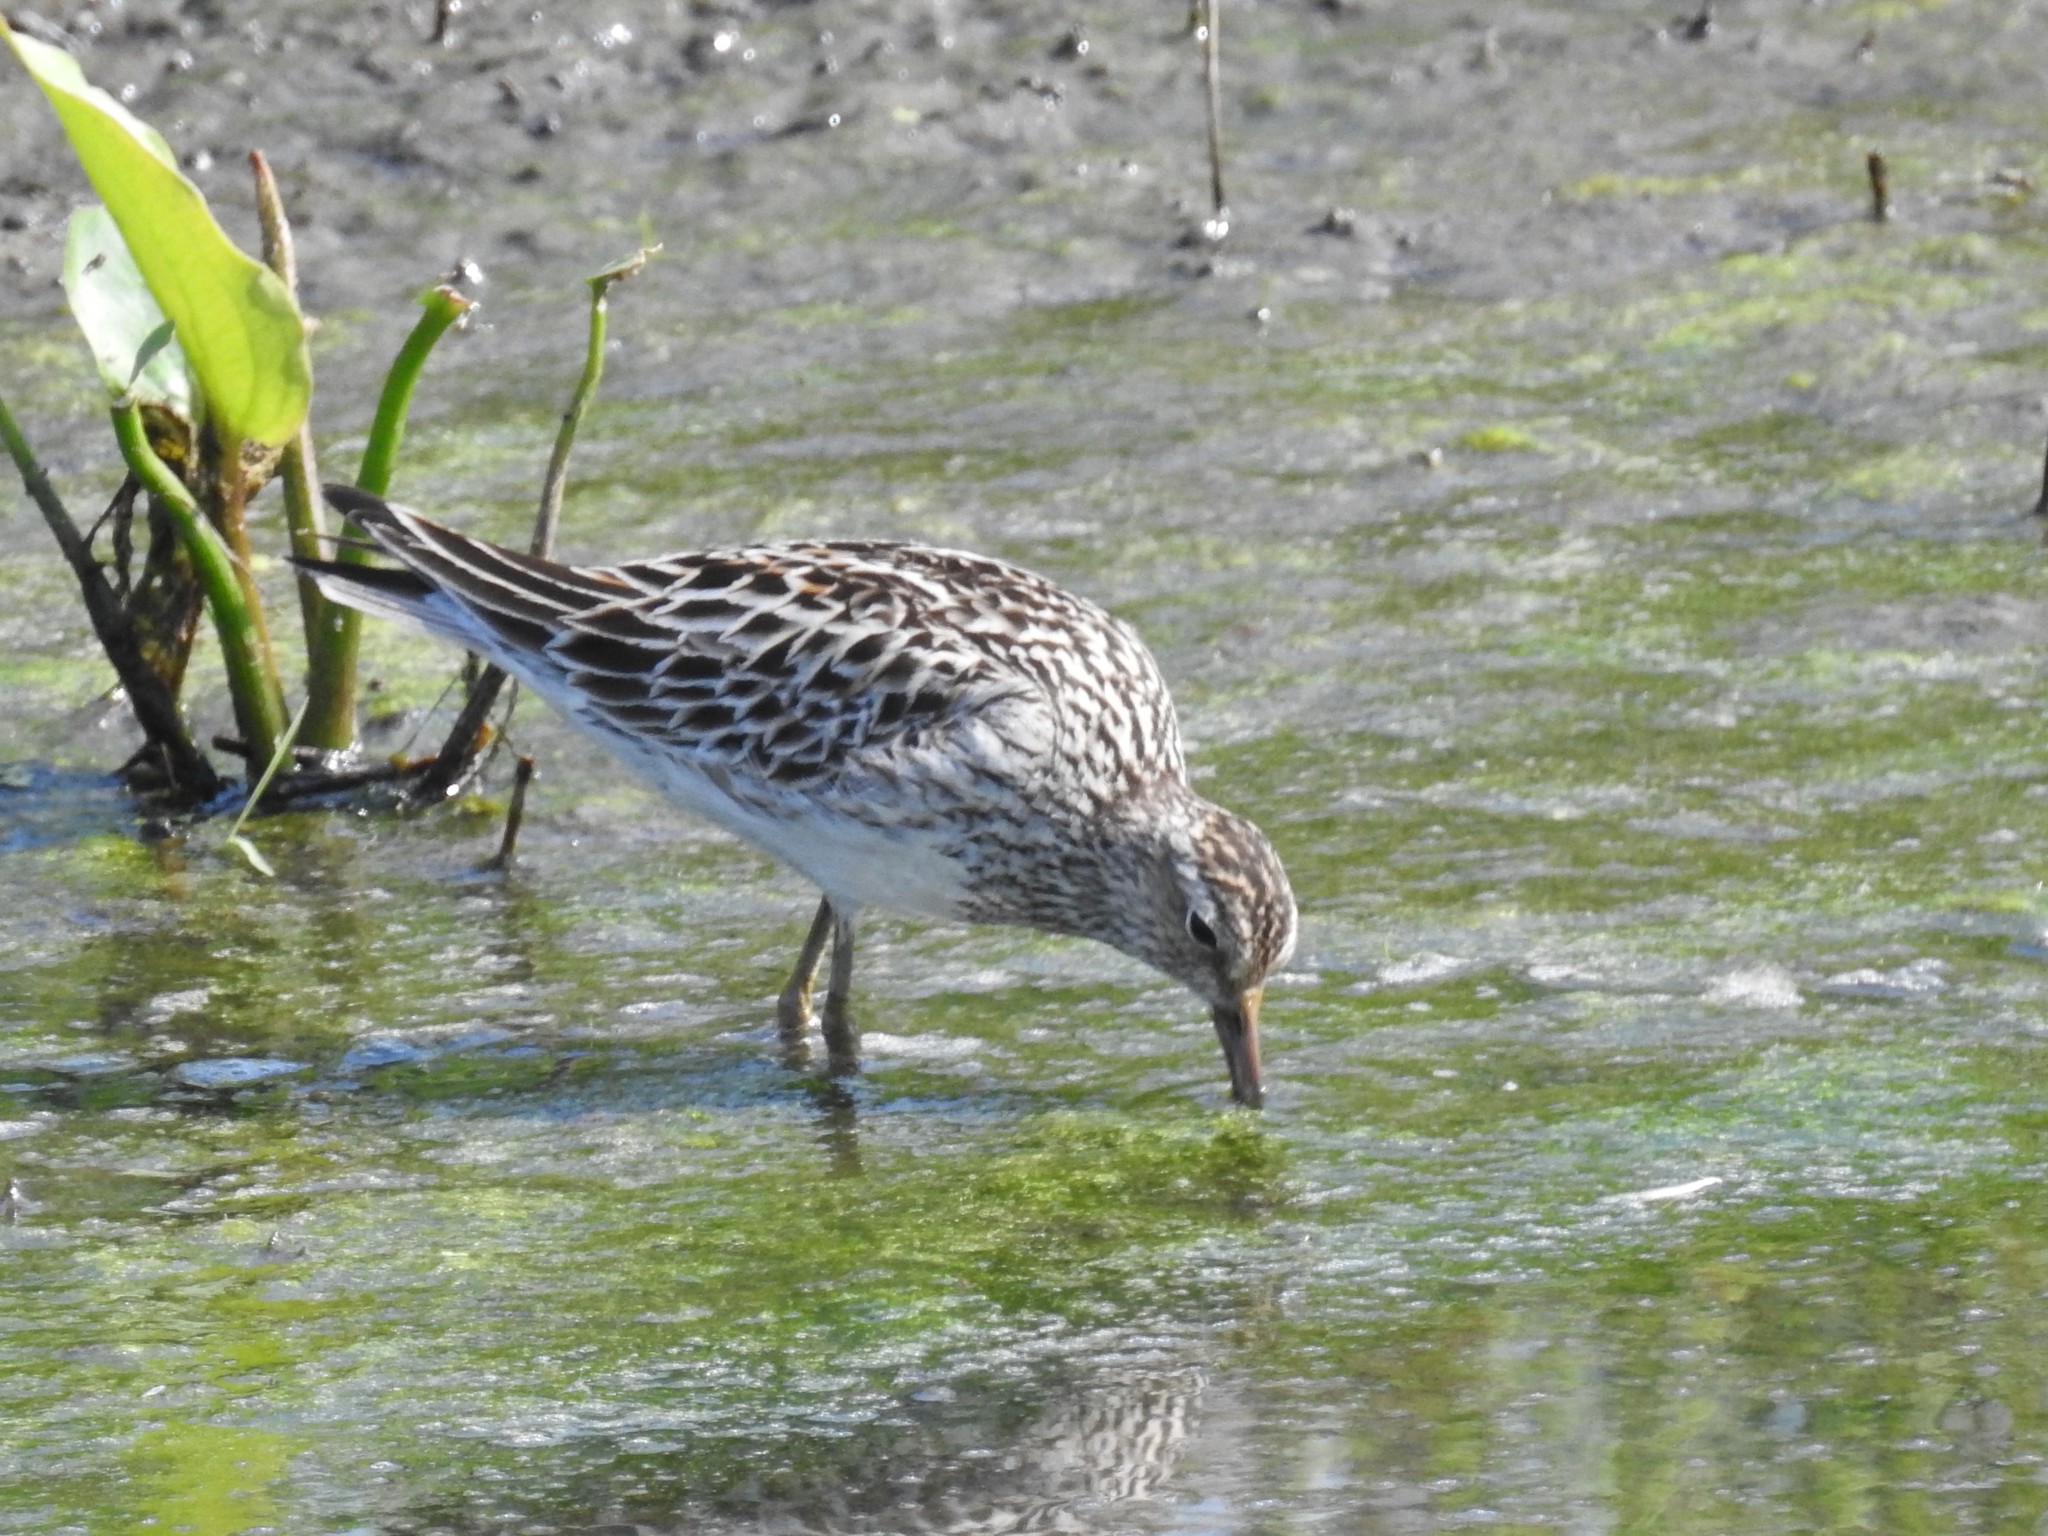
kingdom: Animalia
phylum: Chordata
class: Aves
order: Charadriiformes
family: Scolopacidae
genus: Calidris
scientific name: Calidris melanotos
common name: Pectoral sandpiper
